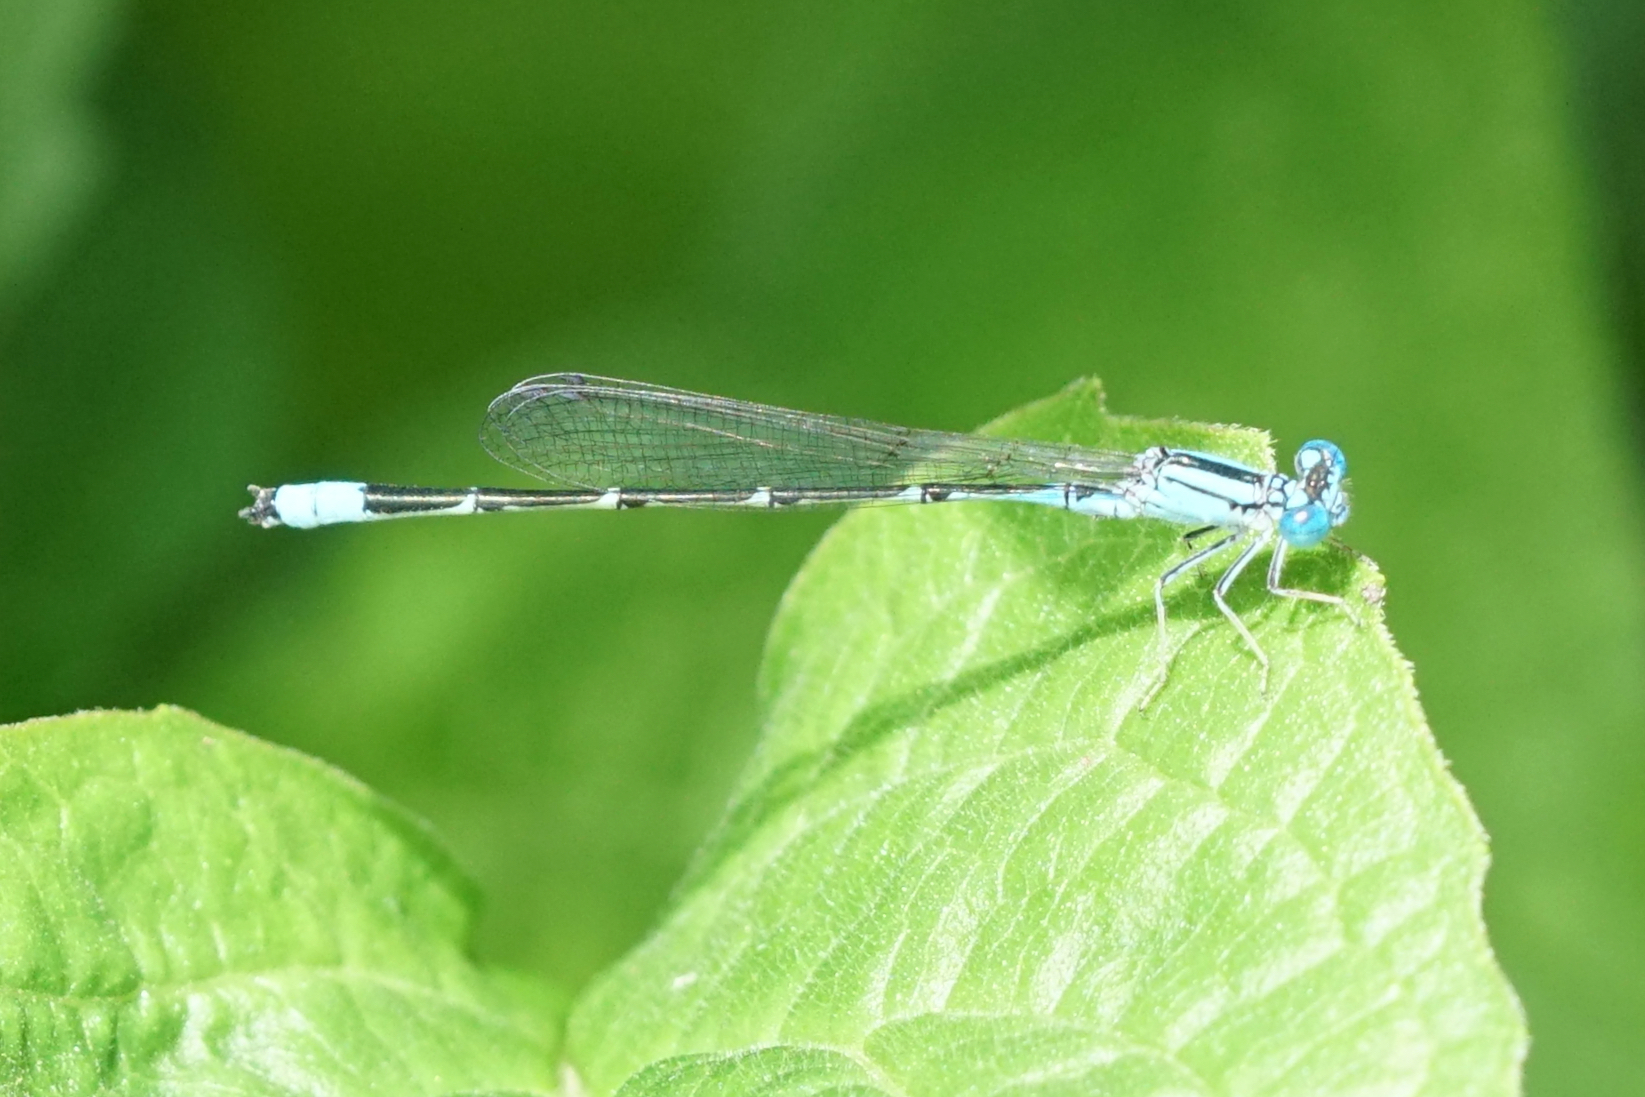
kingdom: Animalia
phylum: Arthropoda
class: Insecta
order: Odonata
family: Coenagrionidae
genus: Enallagma
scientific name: Enallagma traviatum
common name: Slender bluet
